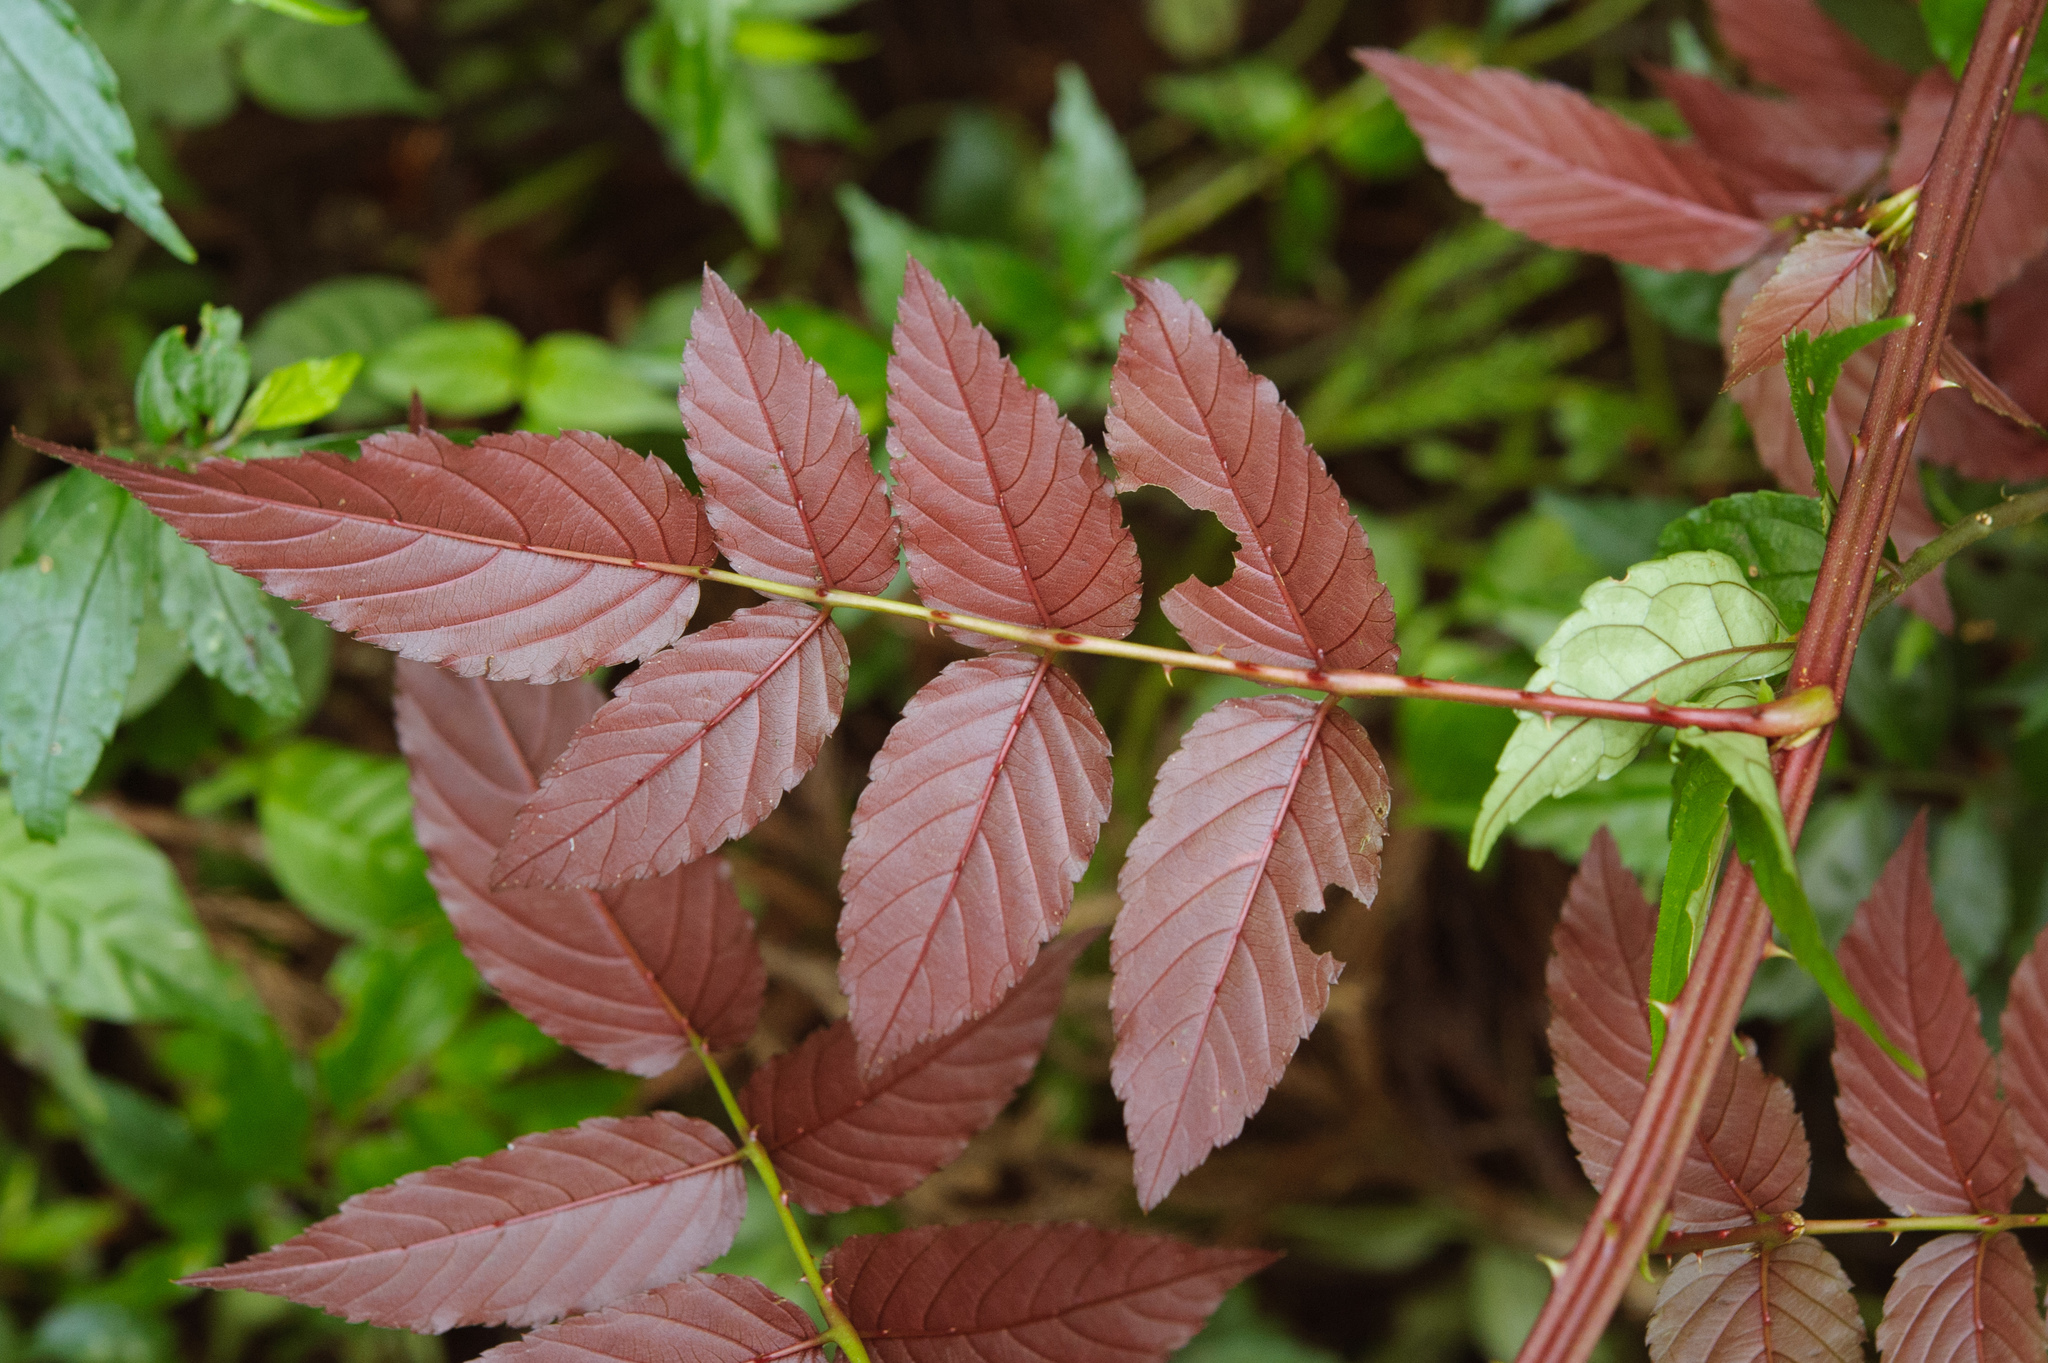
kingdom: Plantae
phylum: Tracheophyta
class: Magnoliopsida
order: Rosales
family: Rosaceae
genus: Rubus
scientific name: Rubus fraxinifolius
